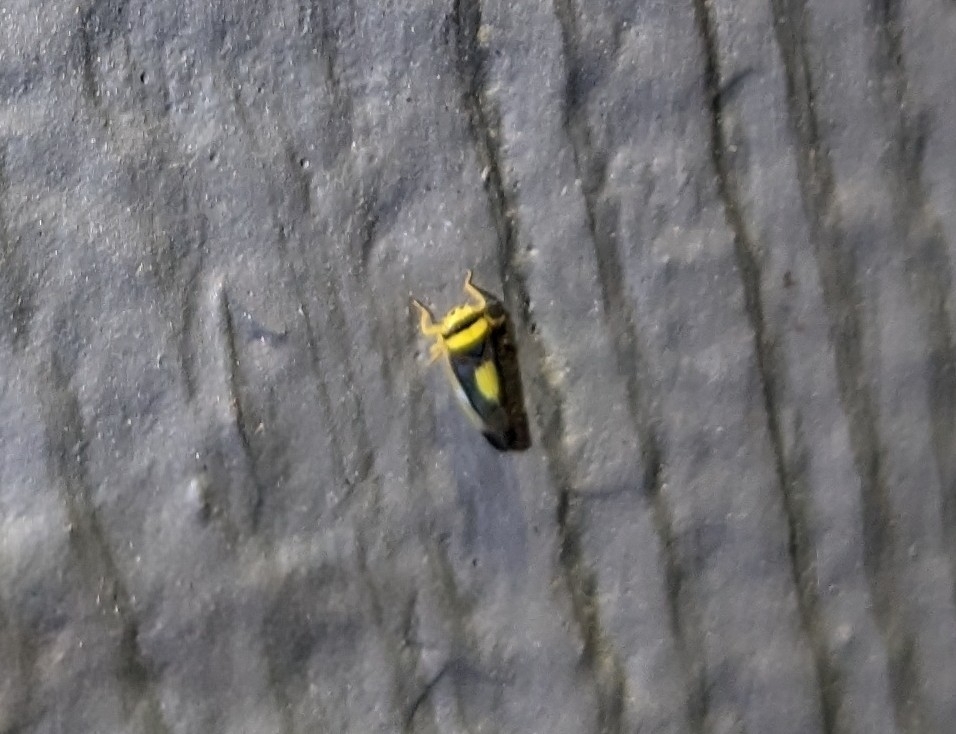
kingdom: Animalia
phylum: Arthropoda
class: Insecta
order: Hemiptera
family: Cicadellidae
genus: Colladonus
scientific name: Colladonus clitellarius
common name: The saddleback leafhopper
